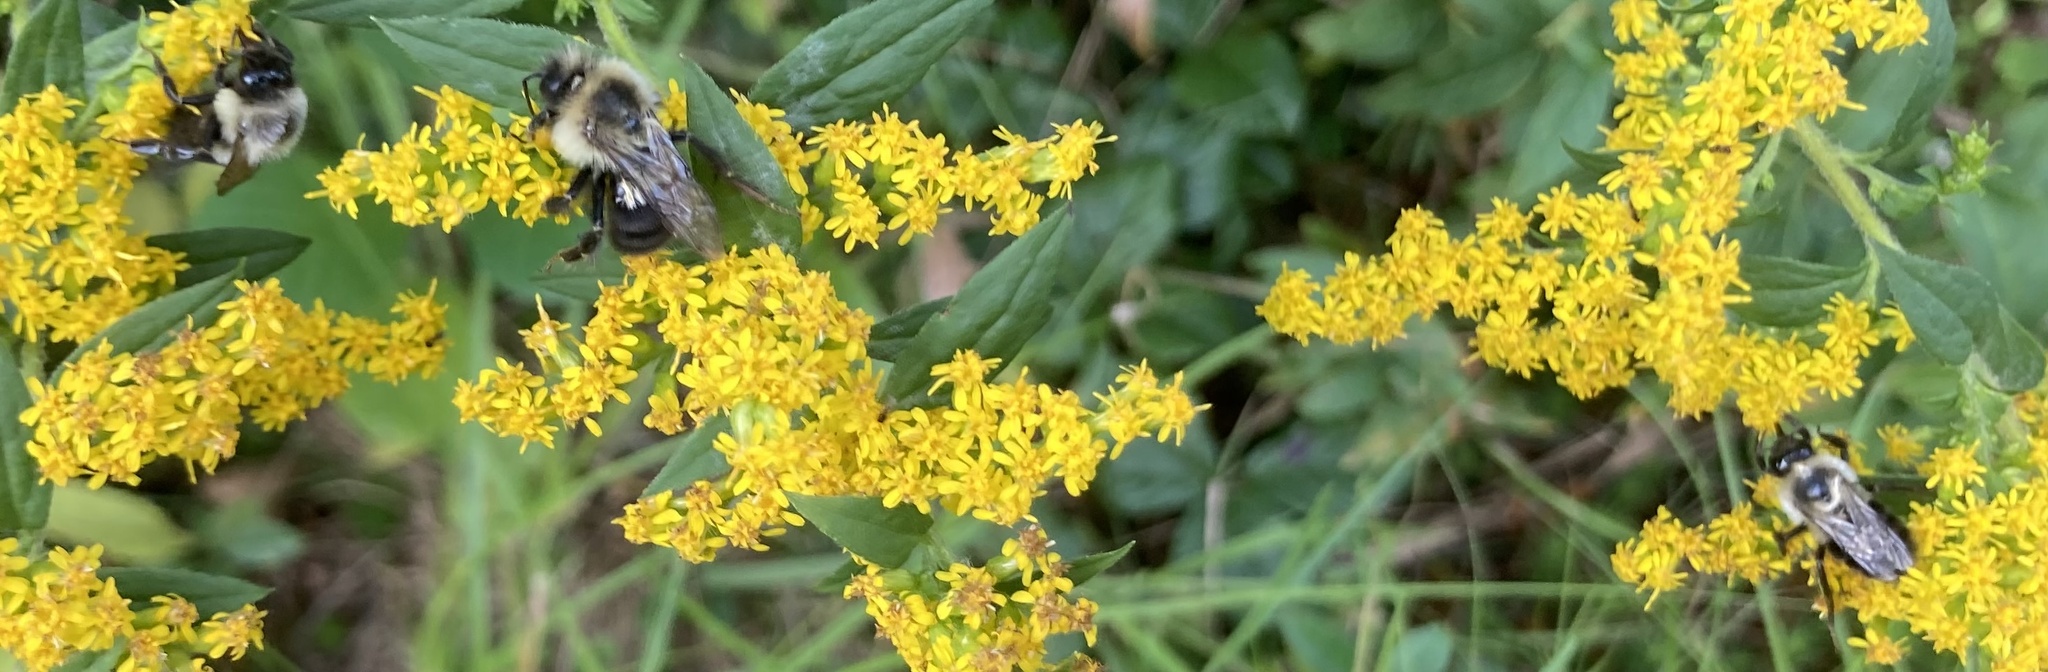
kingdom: Animalia
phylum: Arthropoda
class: Insecta
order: Hymenoptera
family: Apidae
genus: Bombus
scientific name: Bombus impatiens
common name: Common eastern bumble bee
